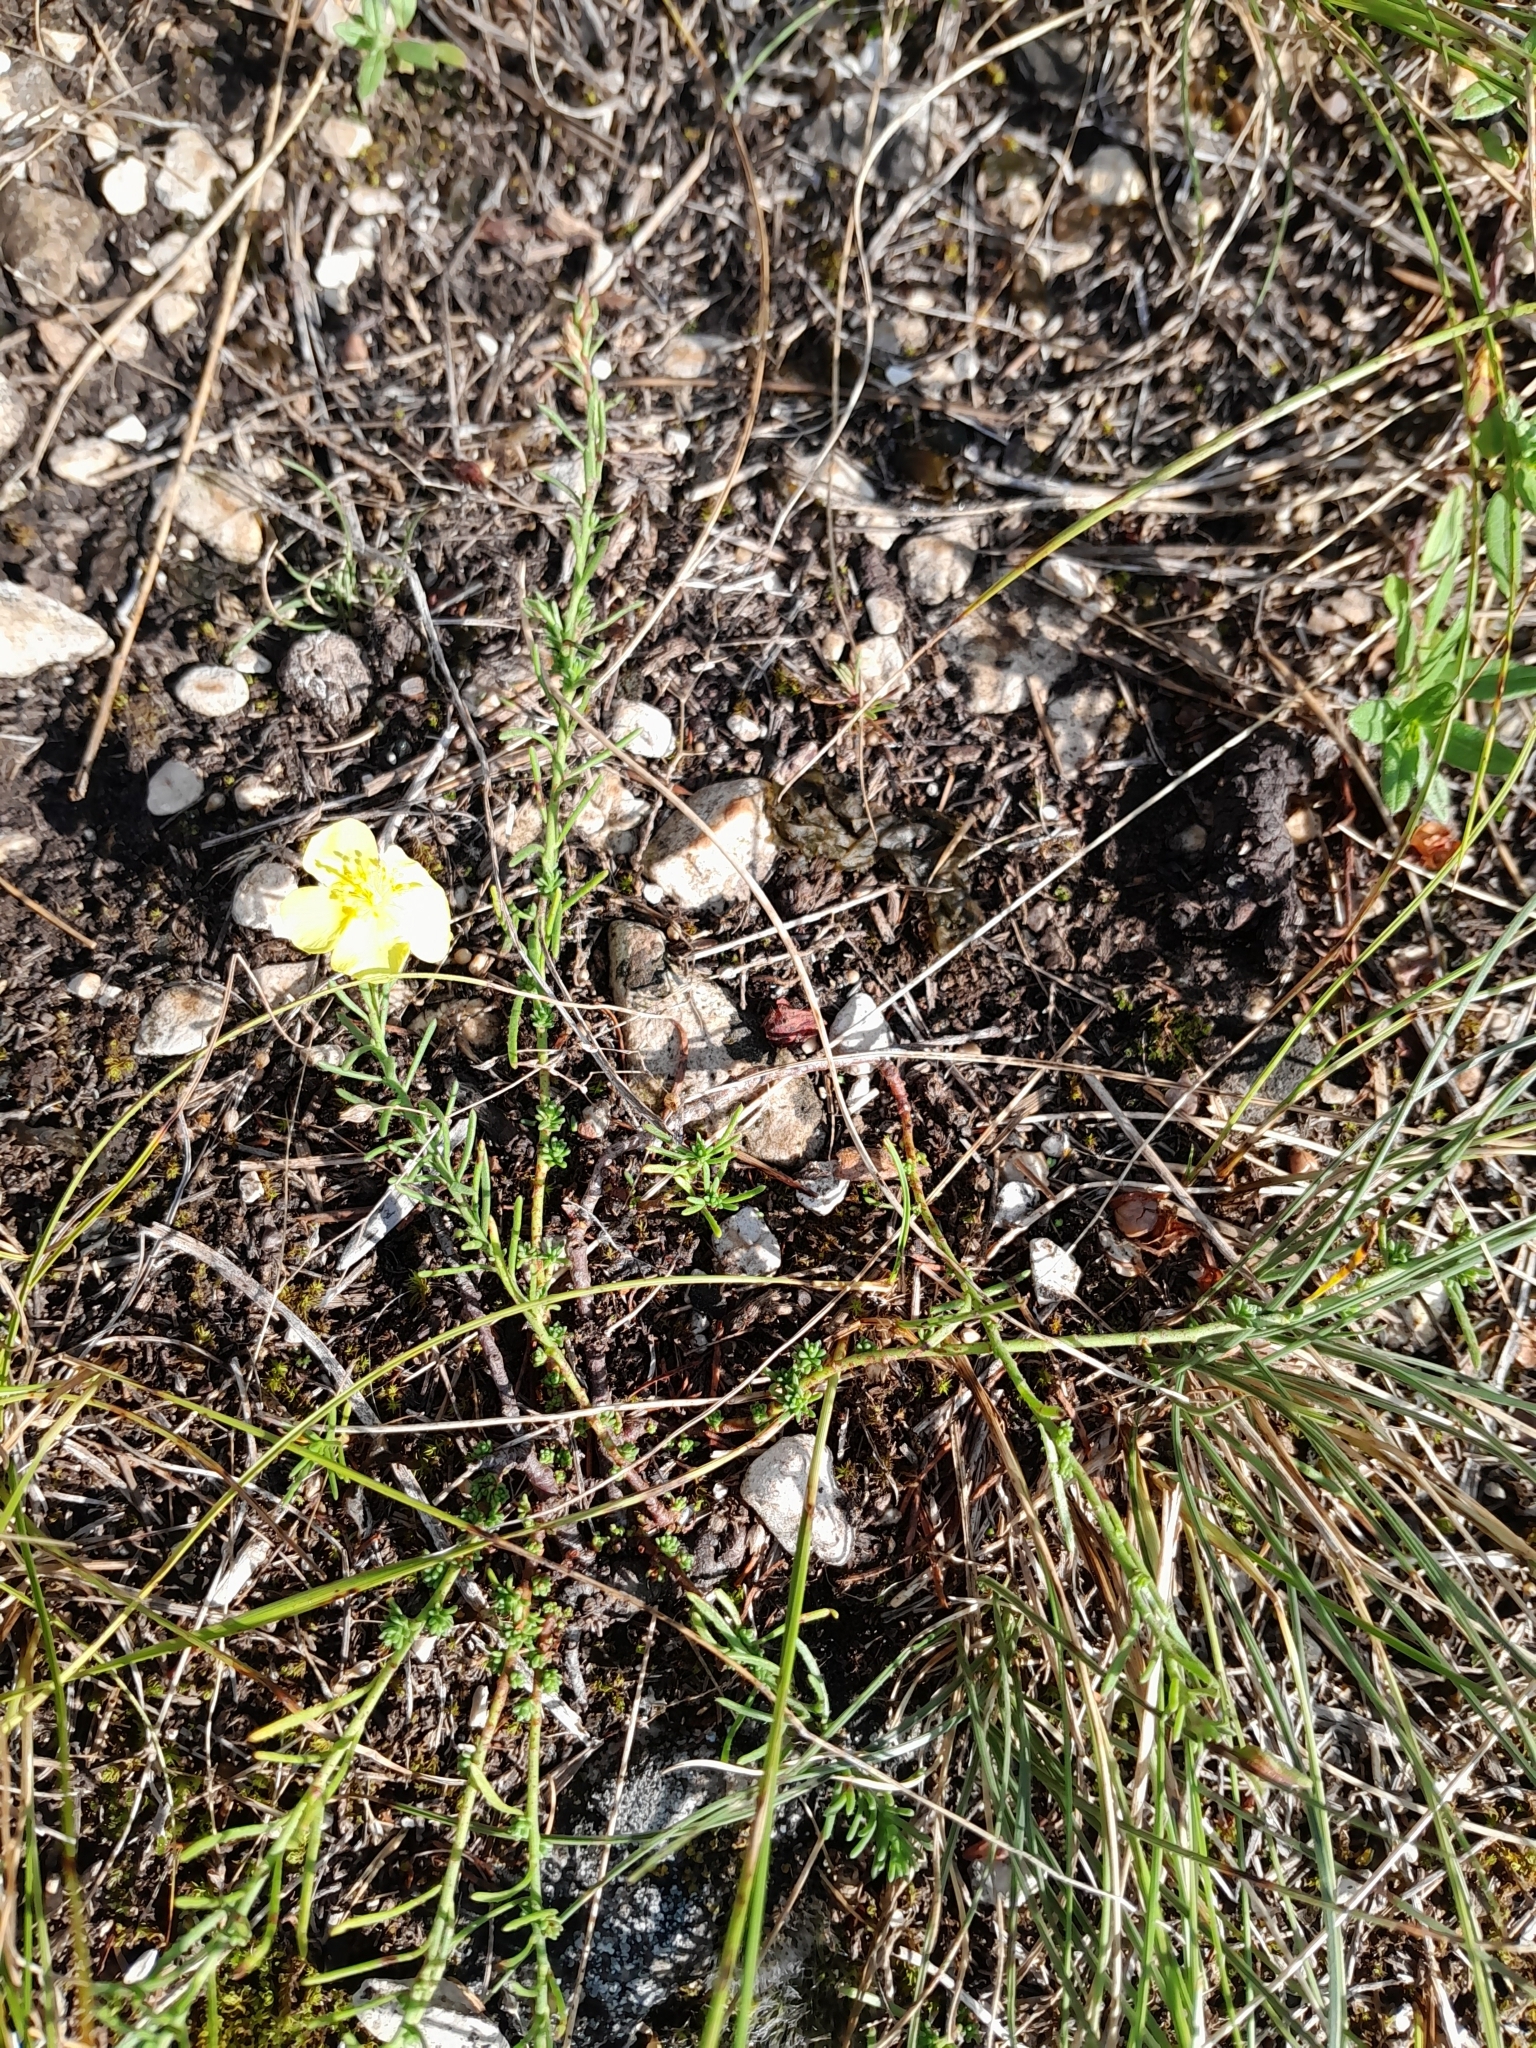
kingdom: Plantae
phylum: Tracheophyta
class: Magnoliopsida
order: Malvales
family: Cistaceae
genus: Fumana
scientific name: Fumana procumbens
